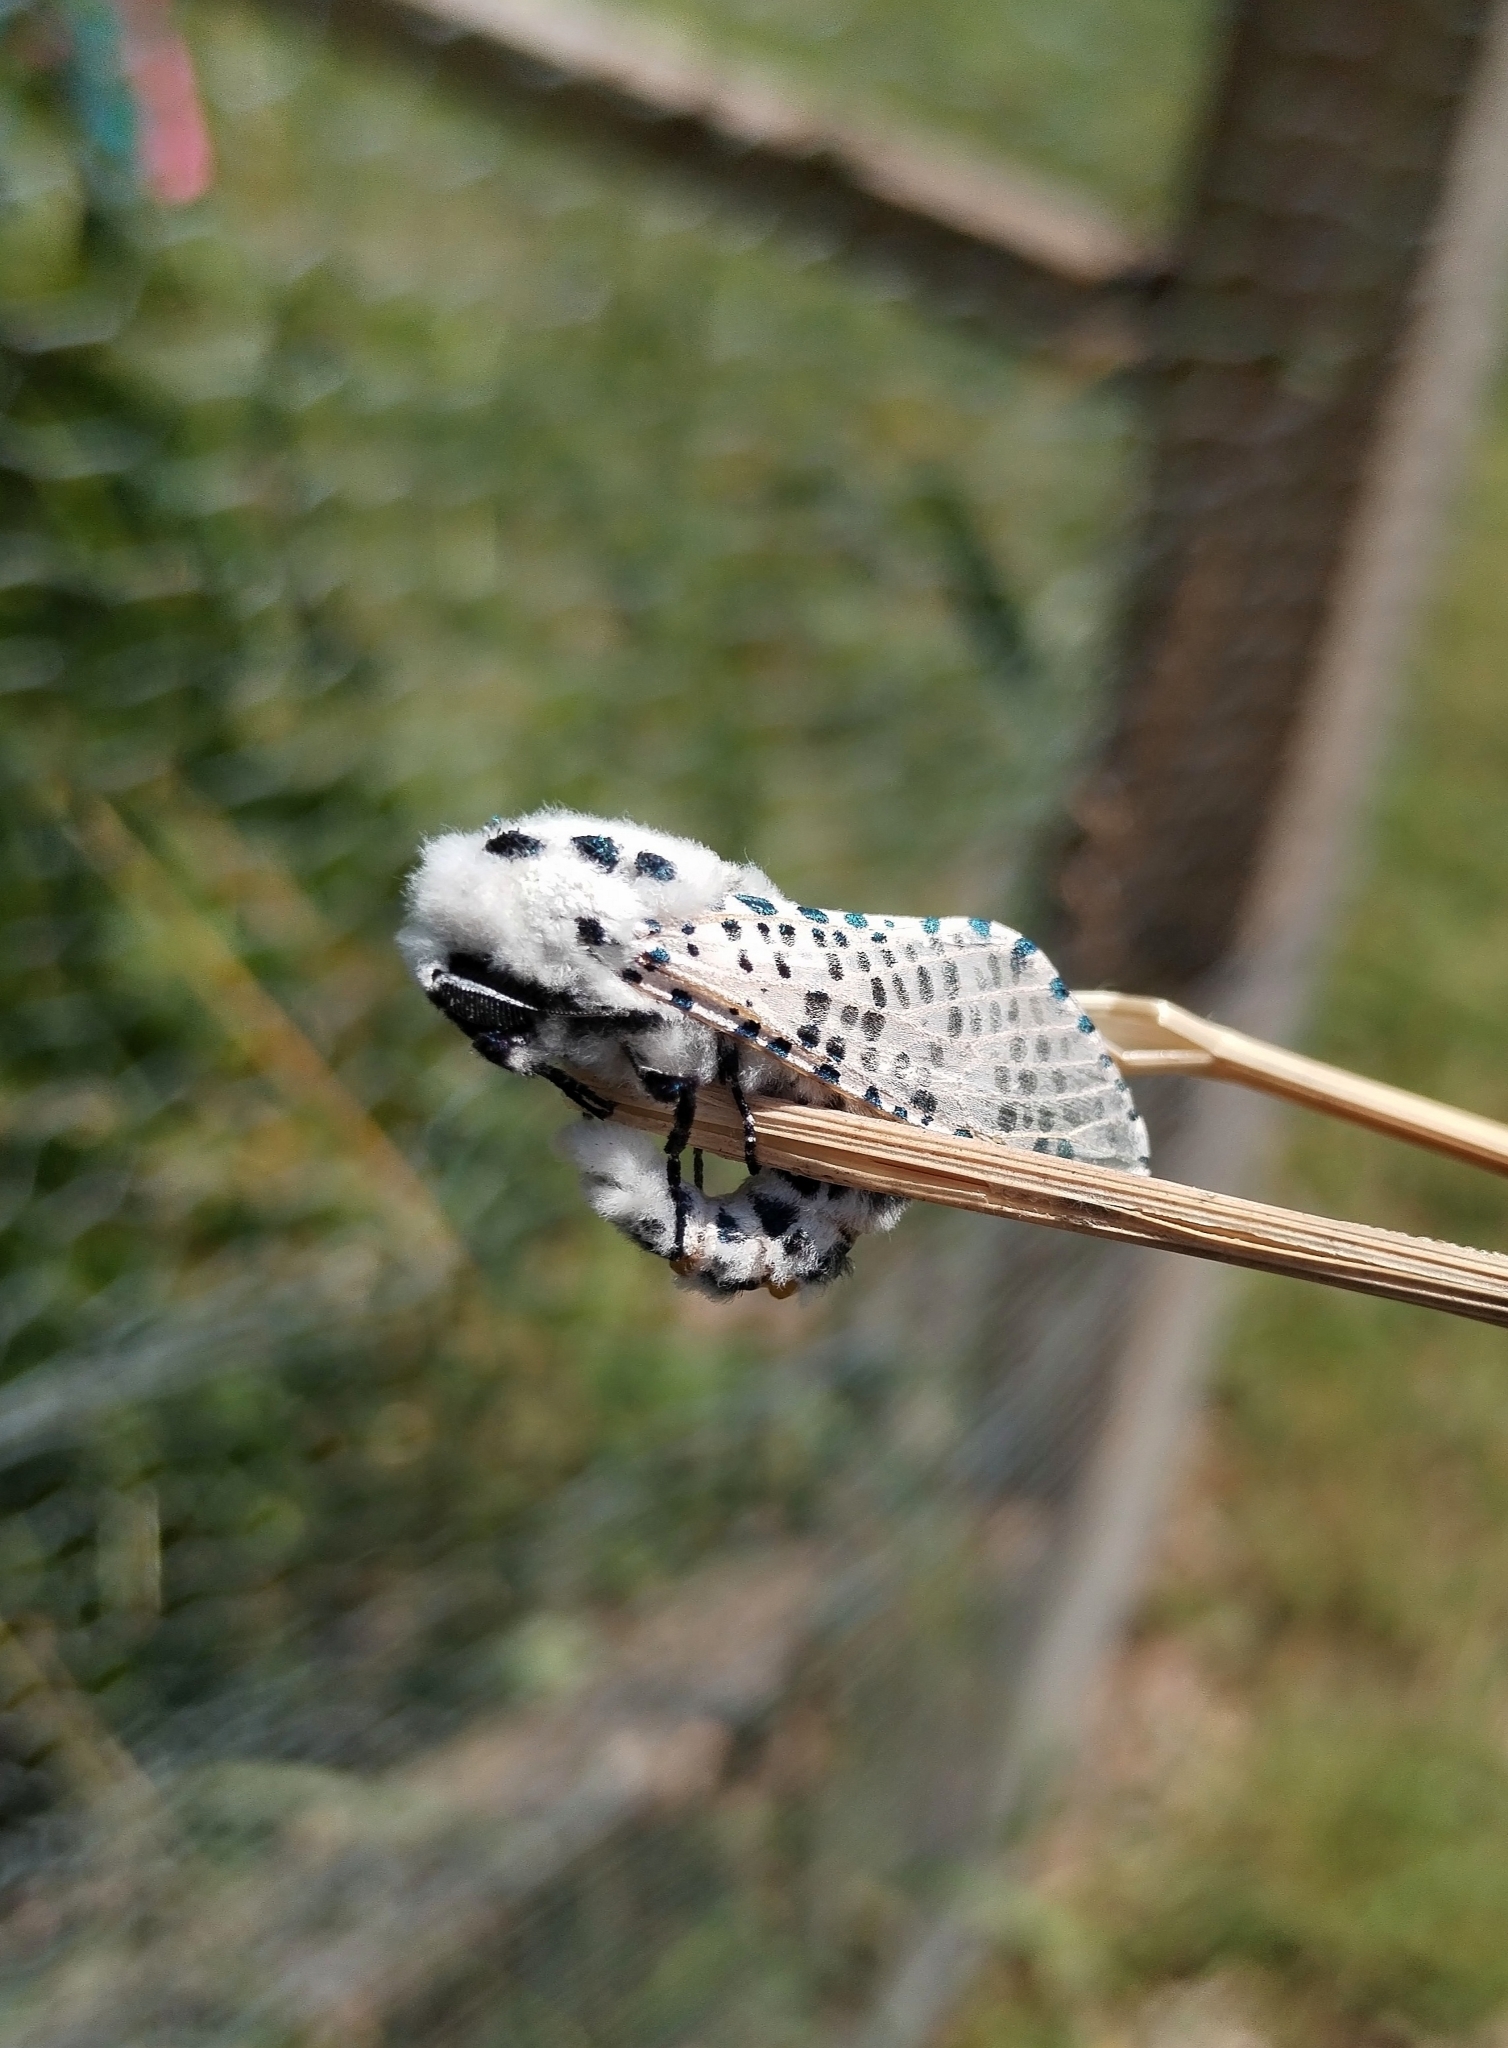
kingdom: Animalia
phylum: Arthropoda
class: Insecta
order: Lepidoptera
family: Cossidae
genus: Zeuzera
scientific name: Zeuzera pyrina
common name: Leopard moth
